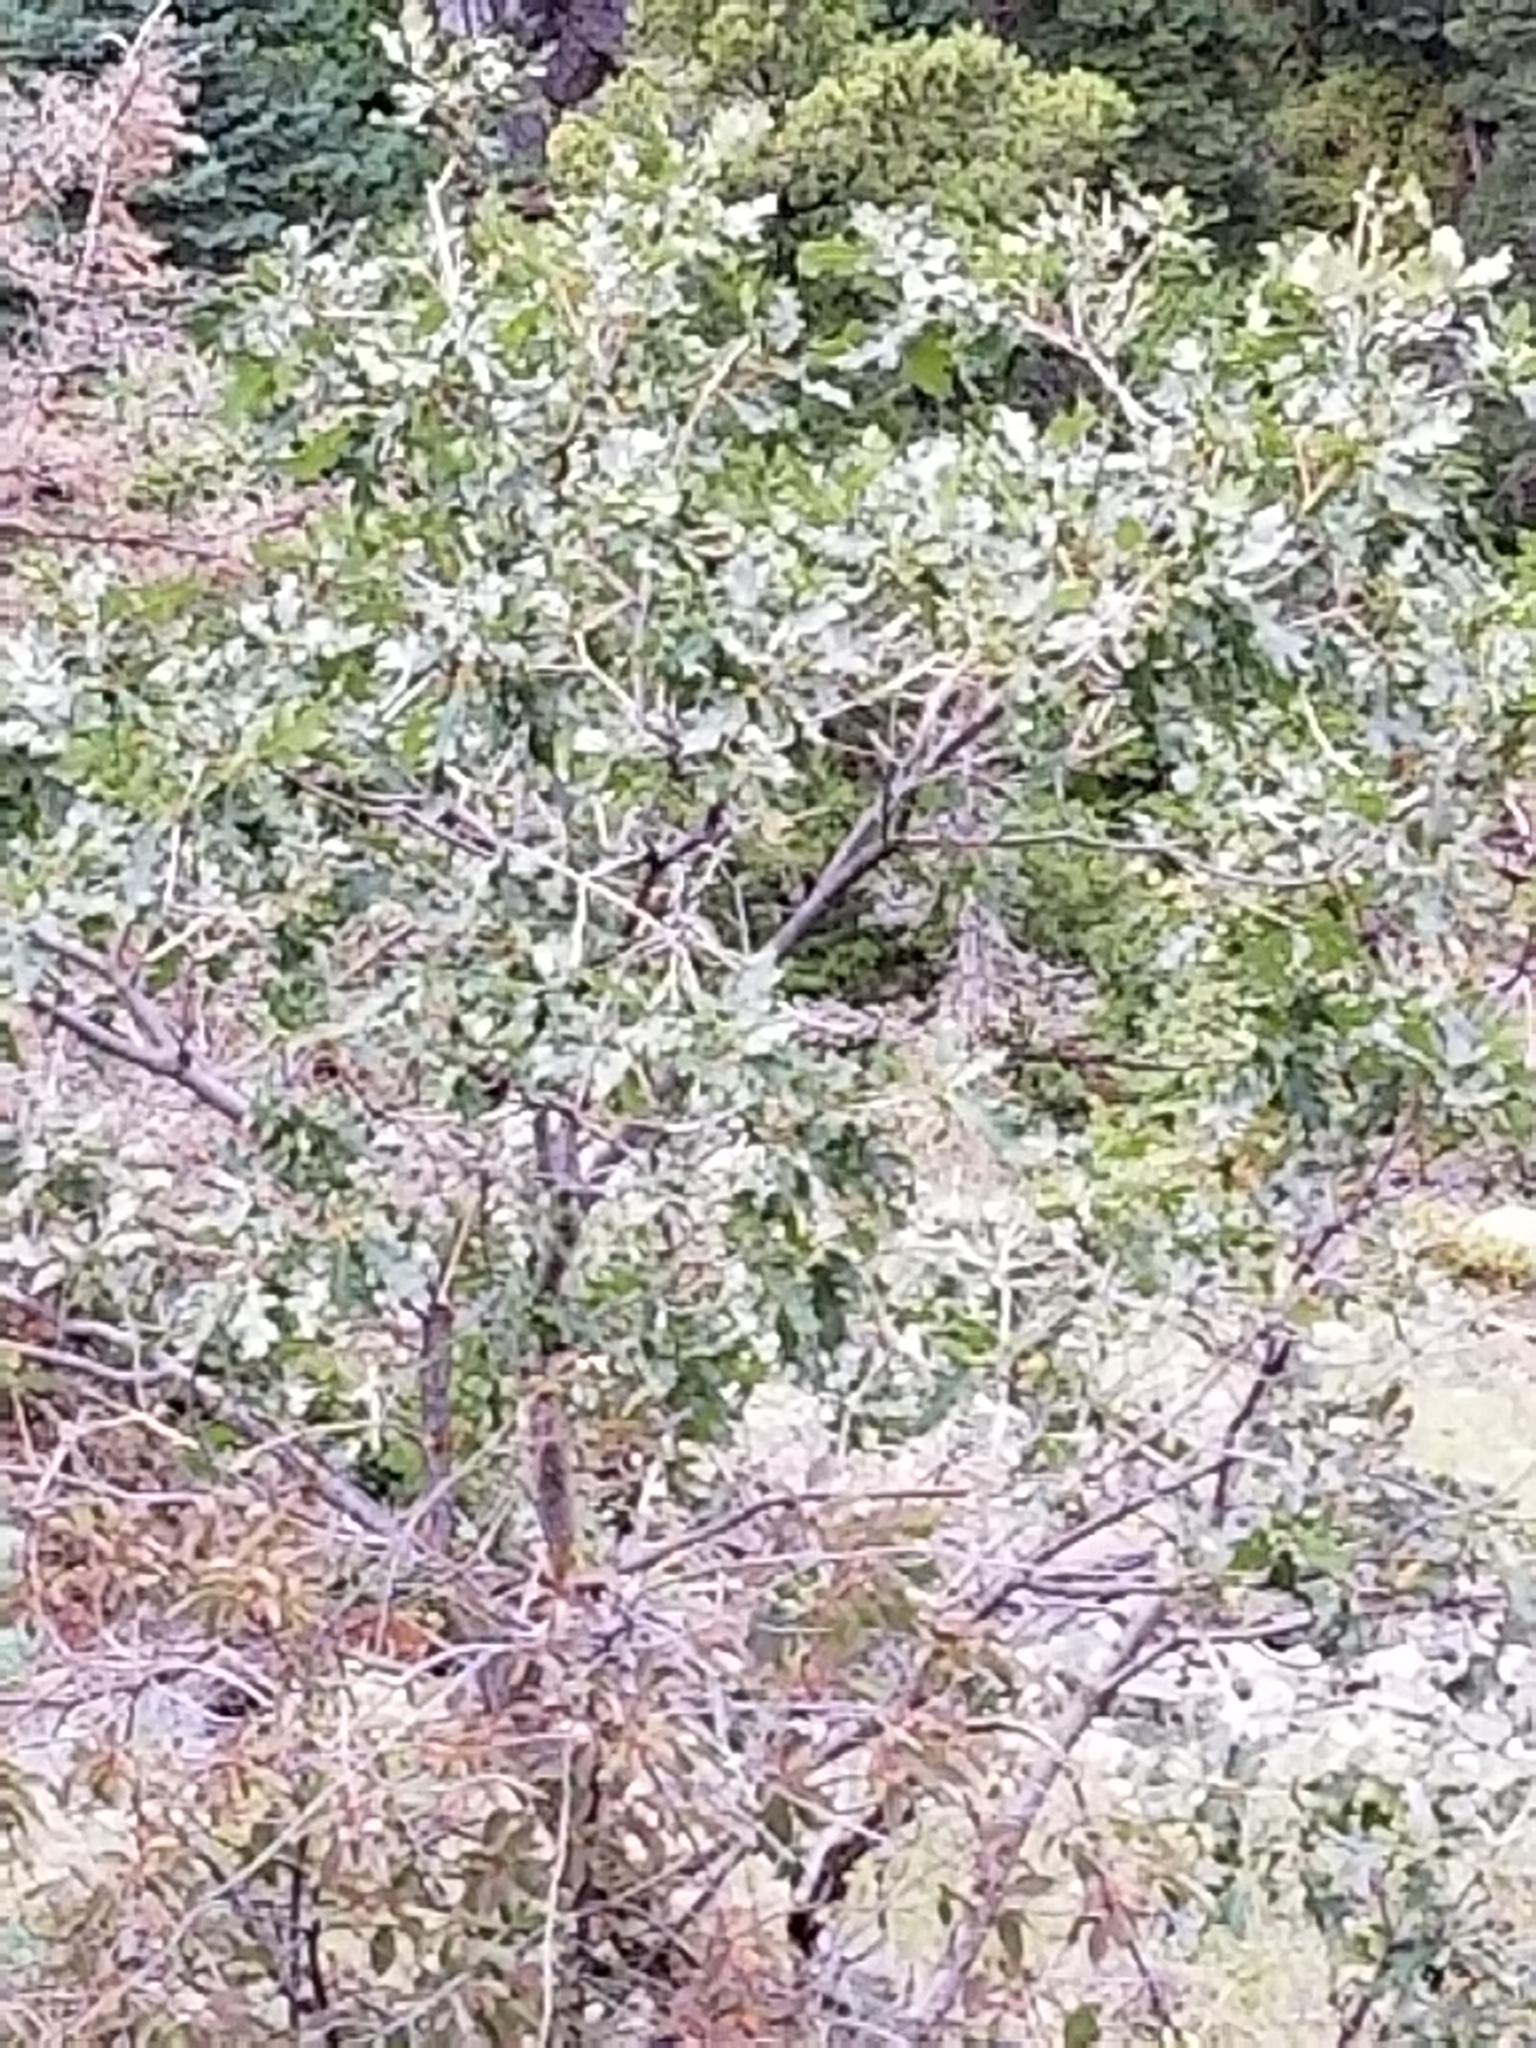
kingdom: Plantae
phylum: Tracheophyta
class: Magnoliopsida
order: Fagales
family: Fagaceae
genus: Quercus
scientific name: Quercus gambelii
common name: Gambel oak
